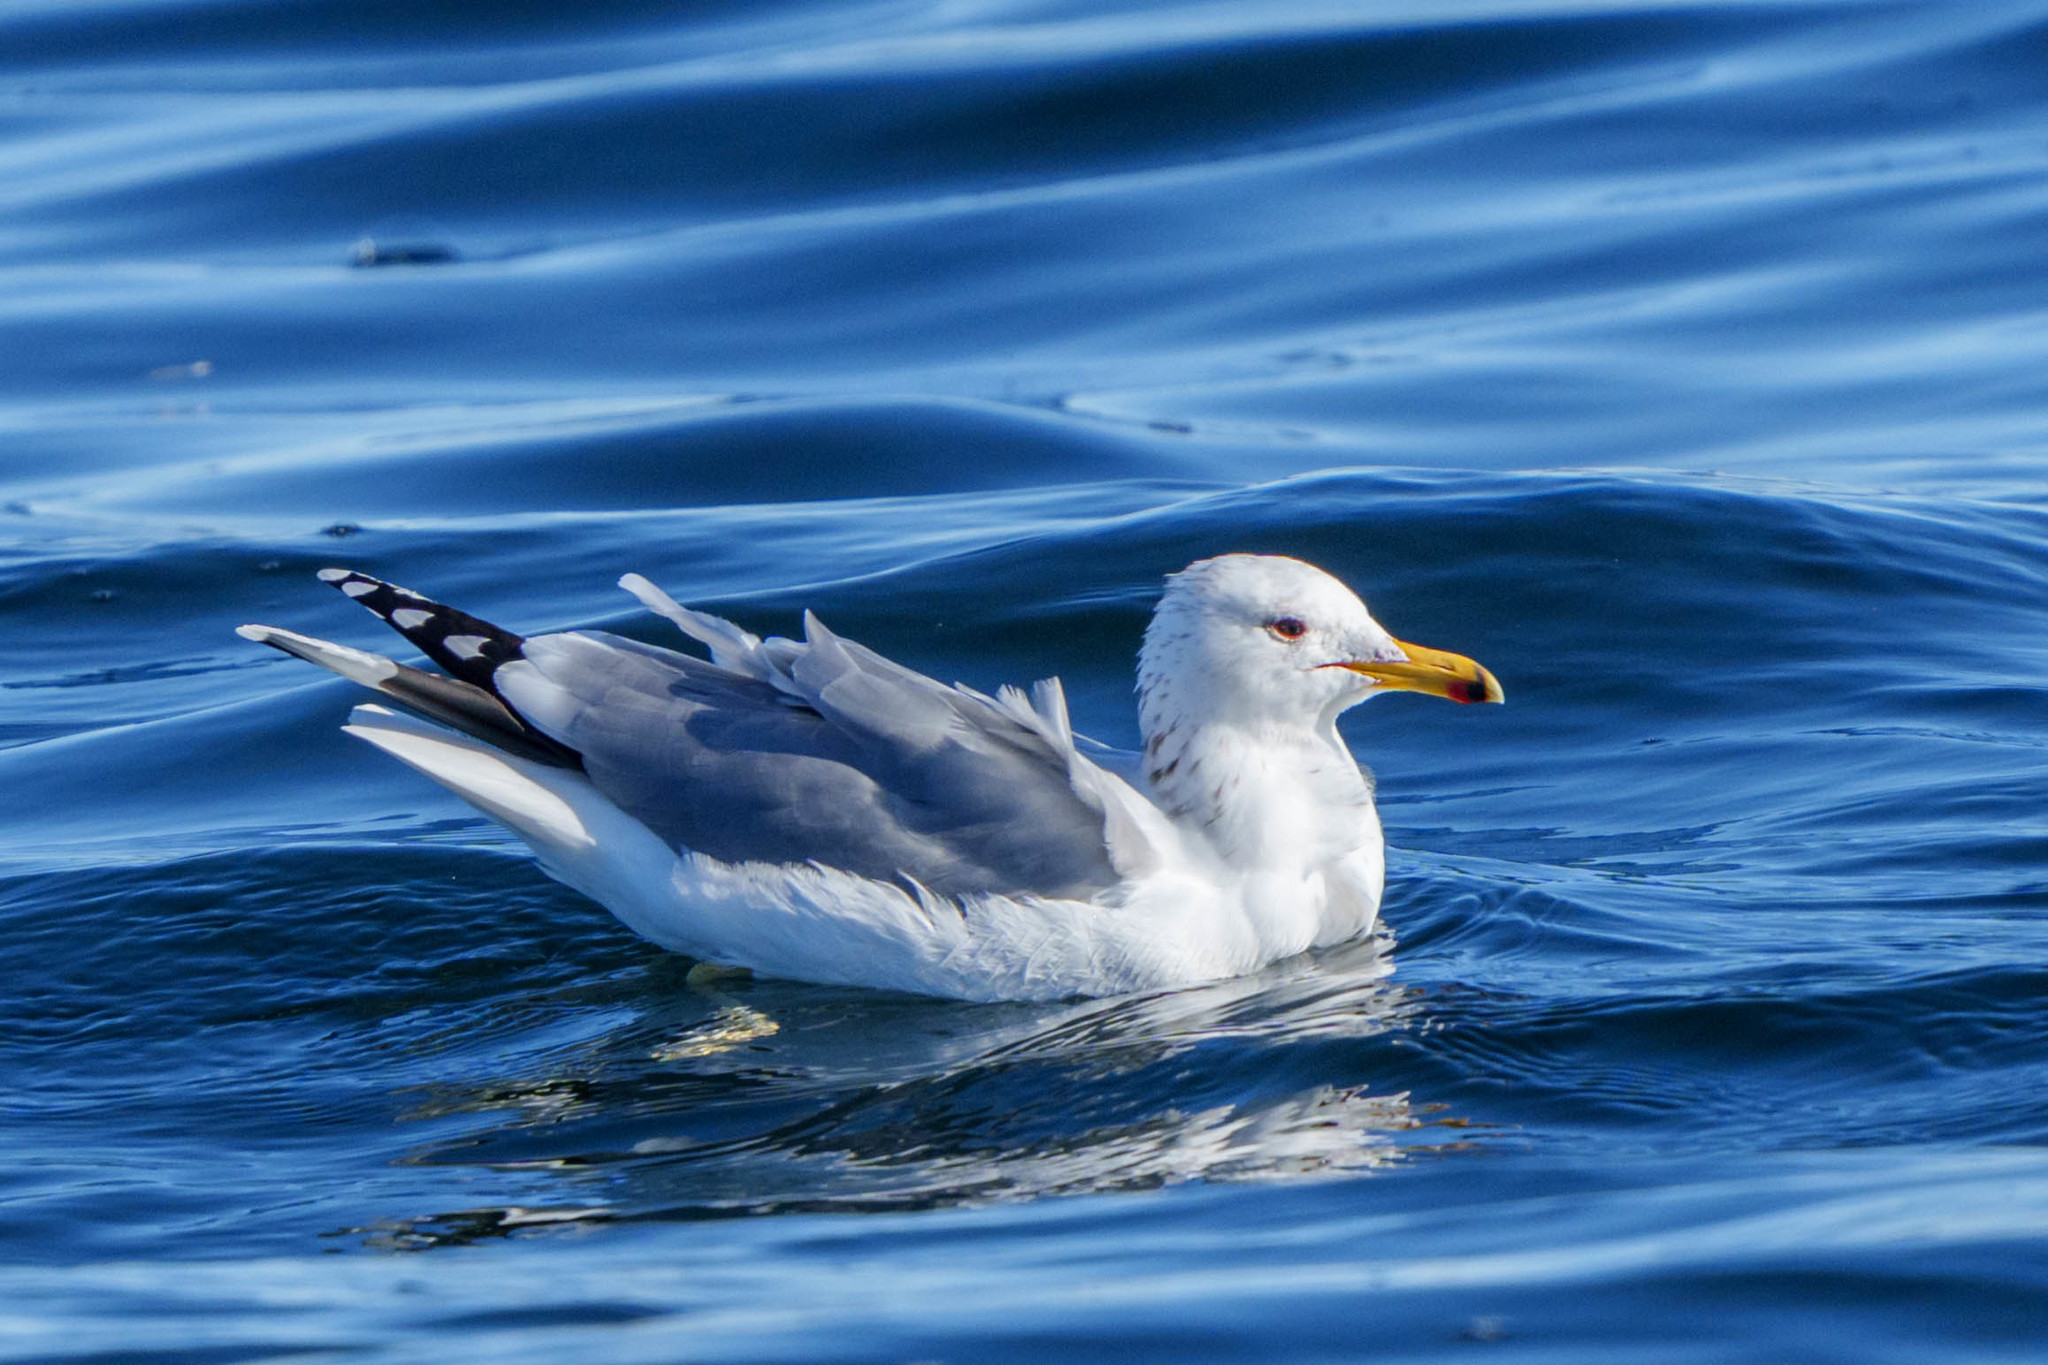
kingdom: Animalia
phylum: Chordata
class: Aves
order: Charadriiformes
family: Laridae
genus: Larus
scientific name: Larus californicus
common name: California gull
